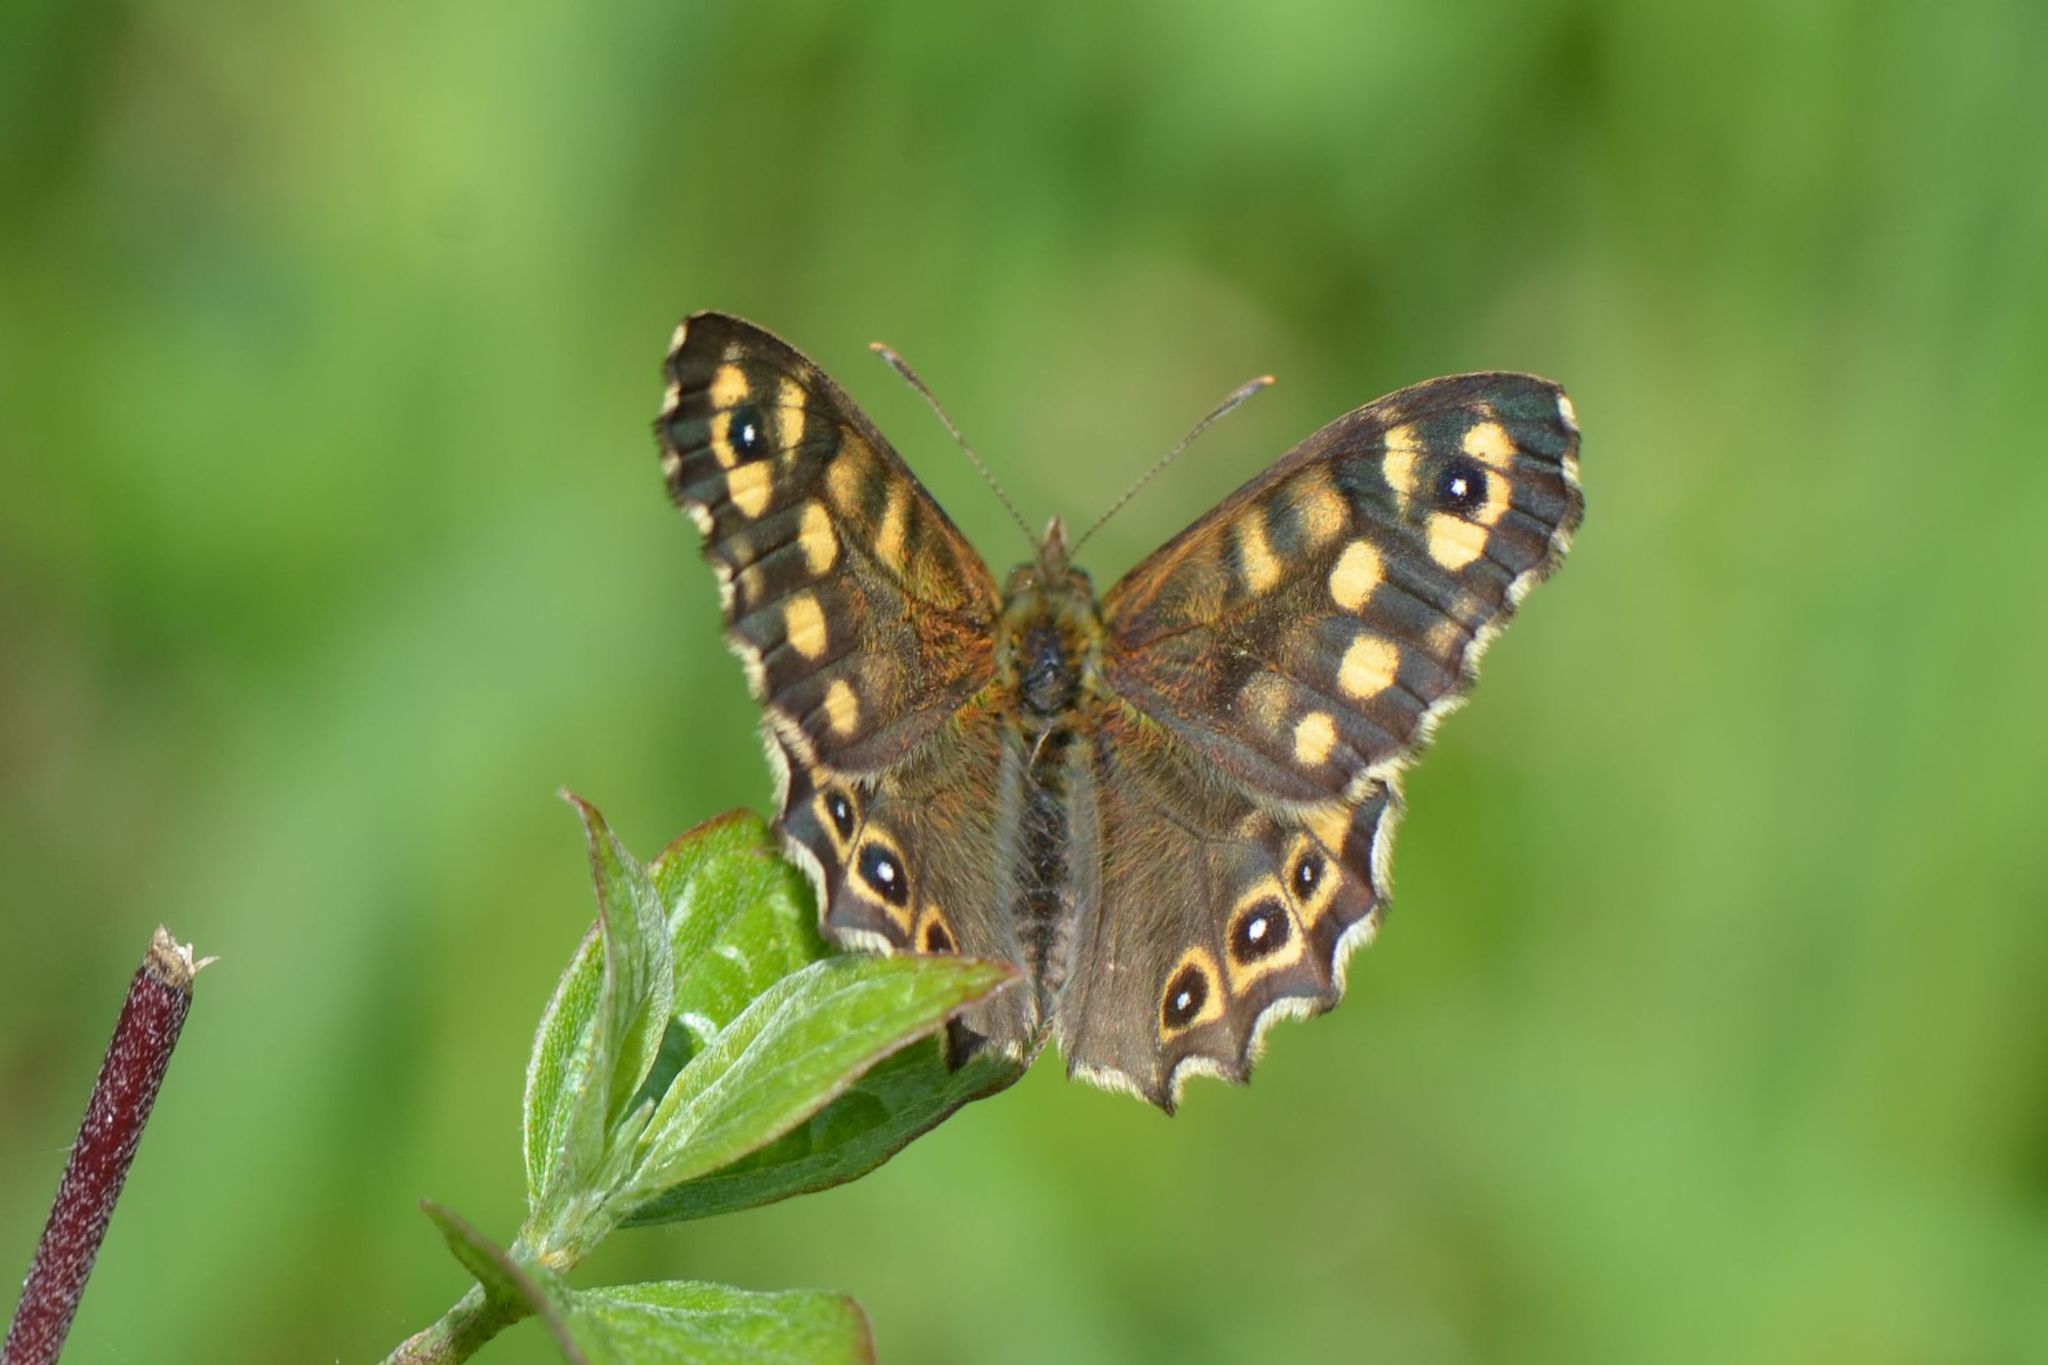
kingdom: Animalia
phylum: Arthropoda
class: Insecta
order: Lepidoptera
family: Nymphalidae
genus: Pararge
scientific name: Pararge aegeria
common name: Speckled wood
